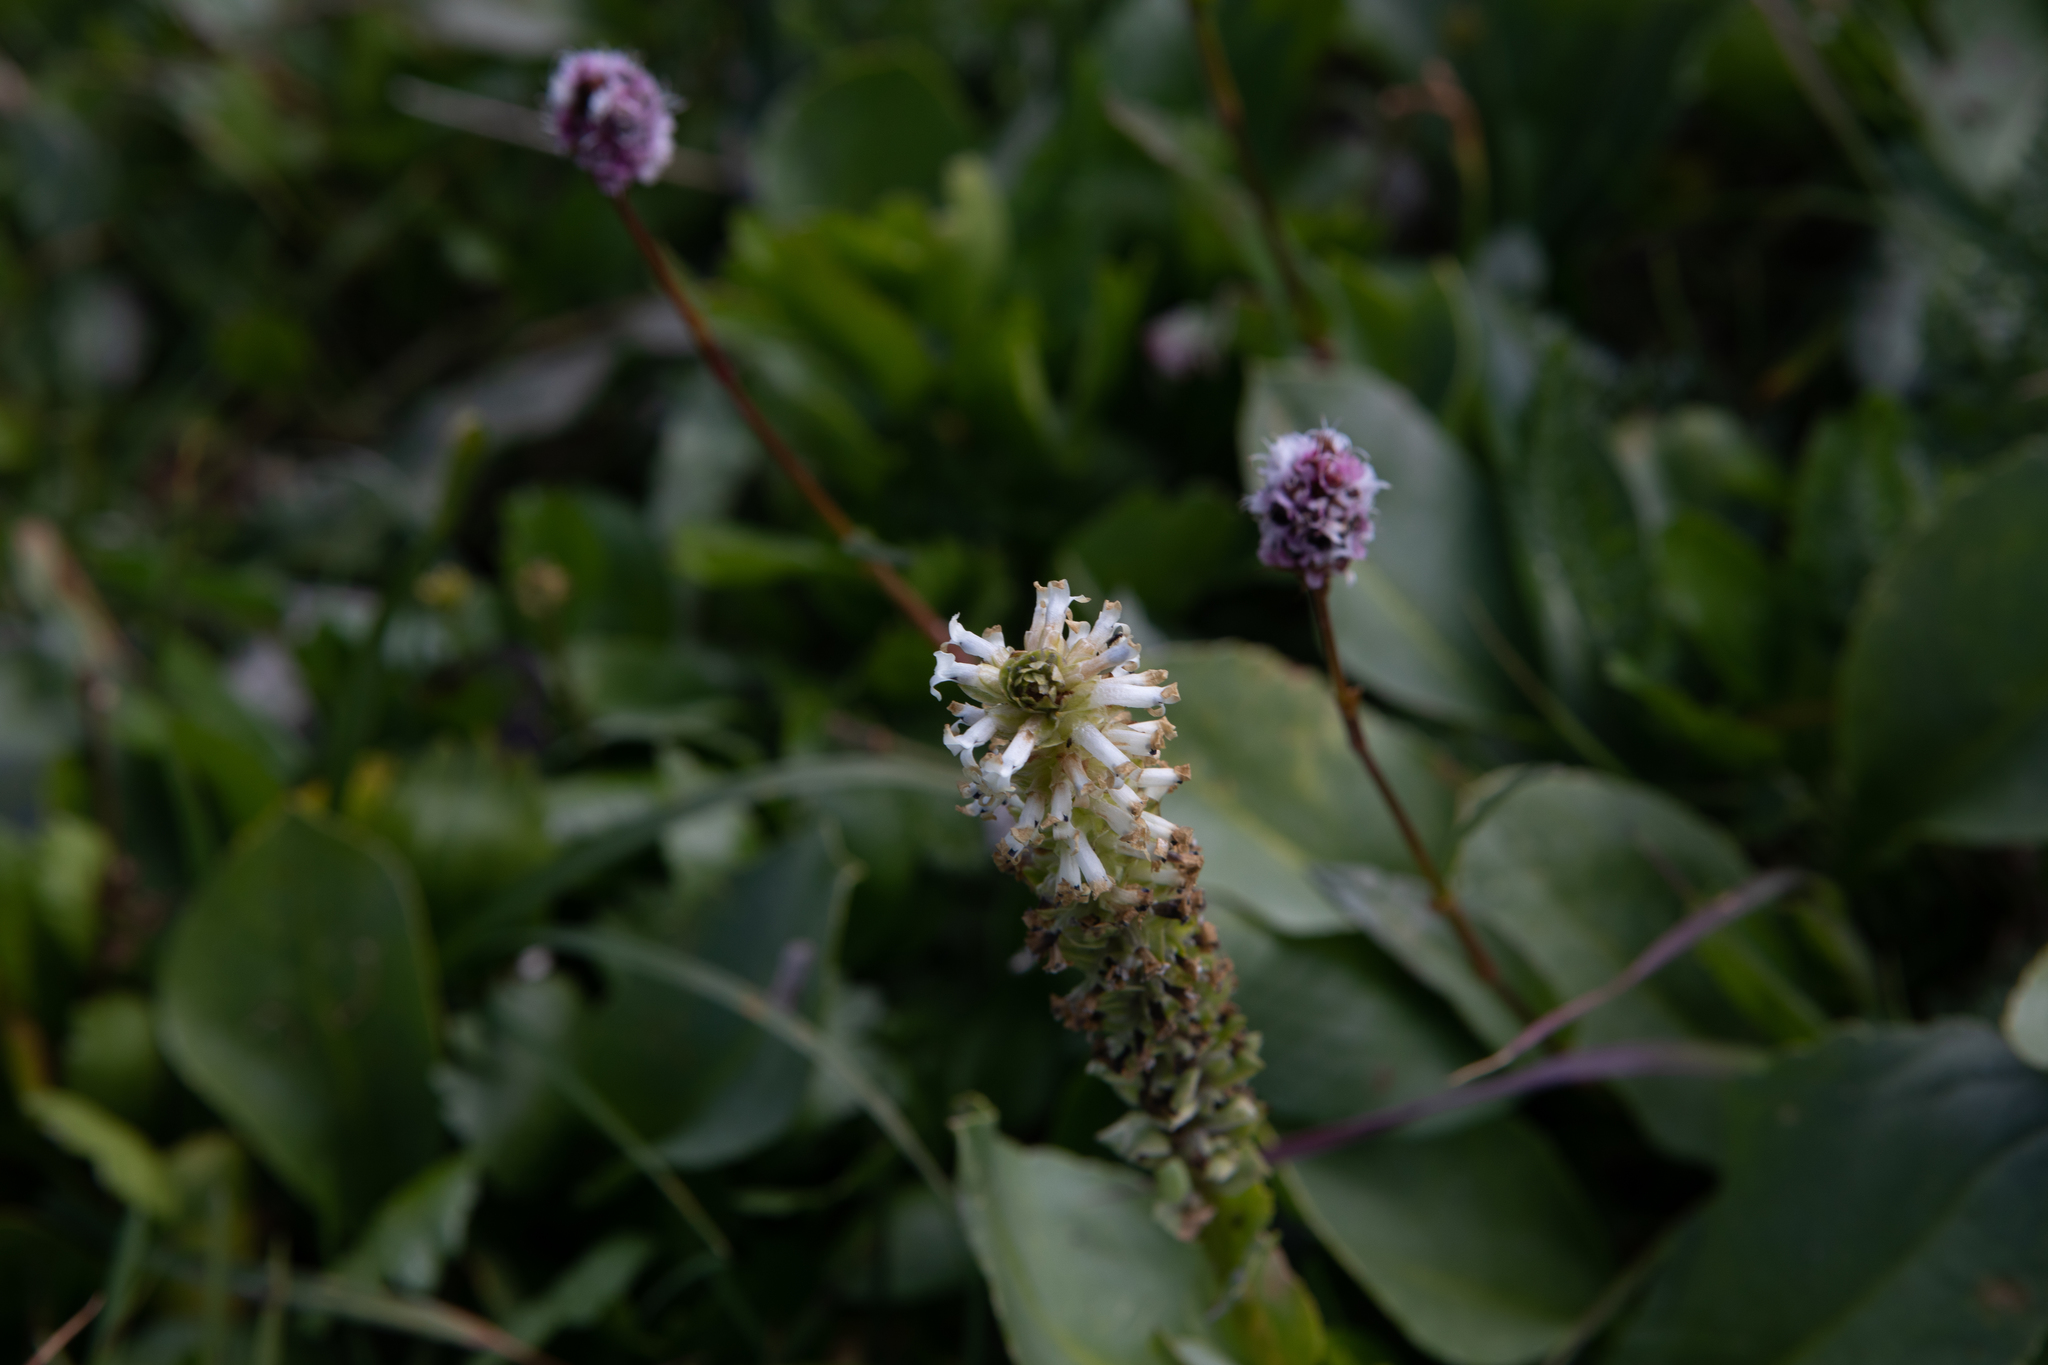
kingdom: Plantae
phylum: Tracheophyta
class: Magnoliopsida
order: Lamiales
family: Plantaginaceae
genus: Lagotis
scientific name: Lagotis integrifolia
